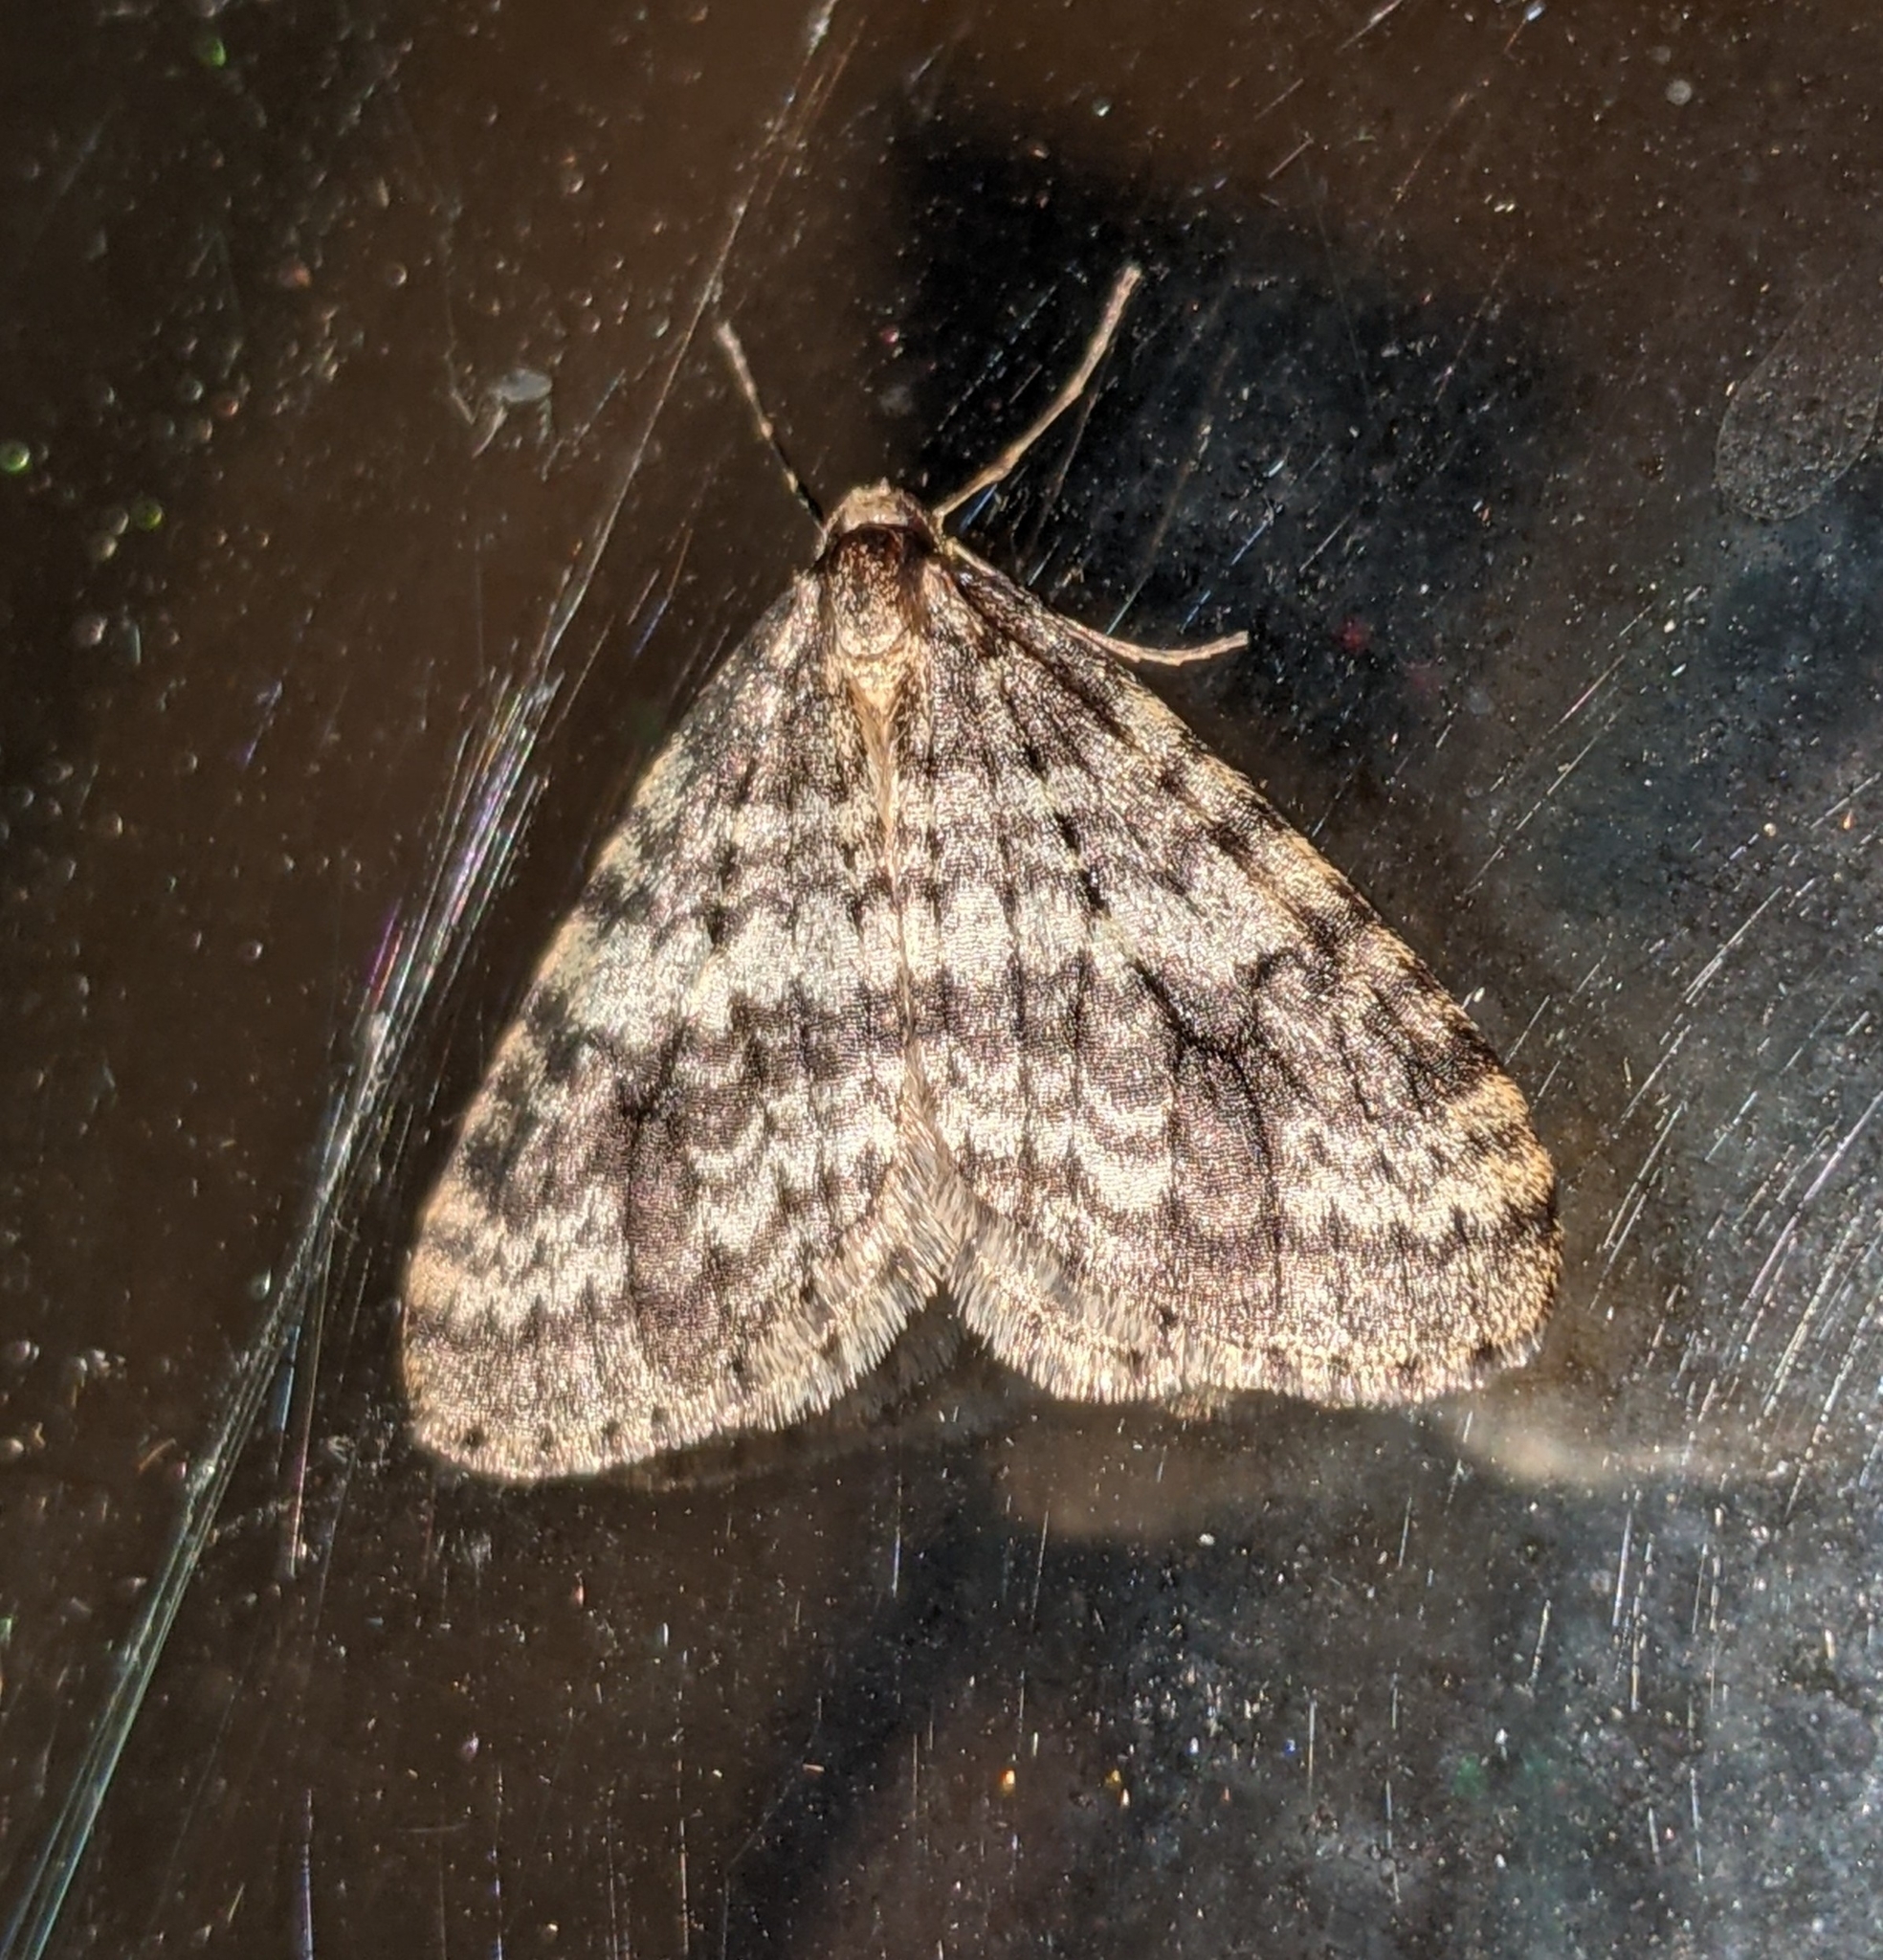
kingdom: Animalia
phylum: Arthropoda
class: Insecta
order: Lepidoptera
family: Geometridae
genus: Operophtera
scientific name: Operophtera occidentalis
